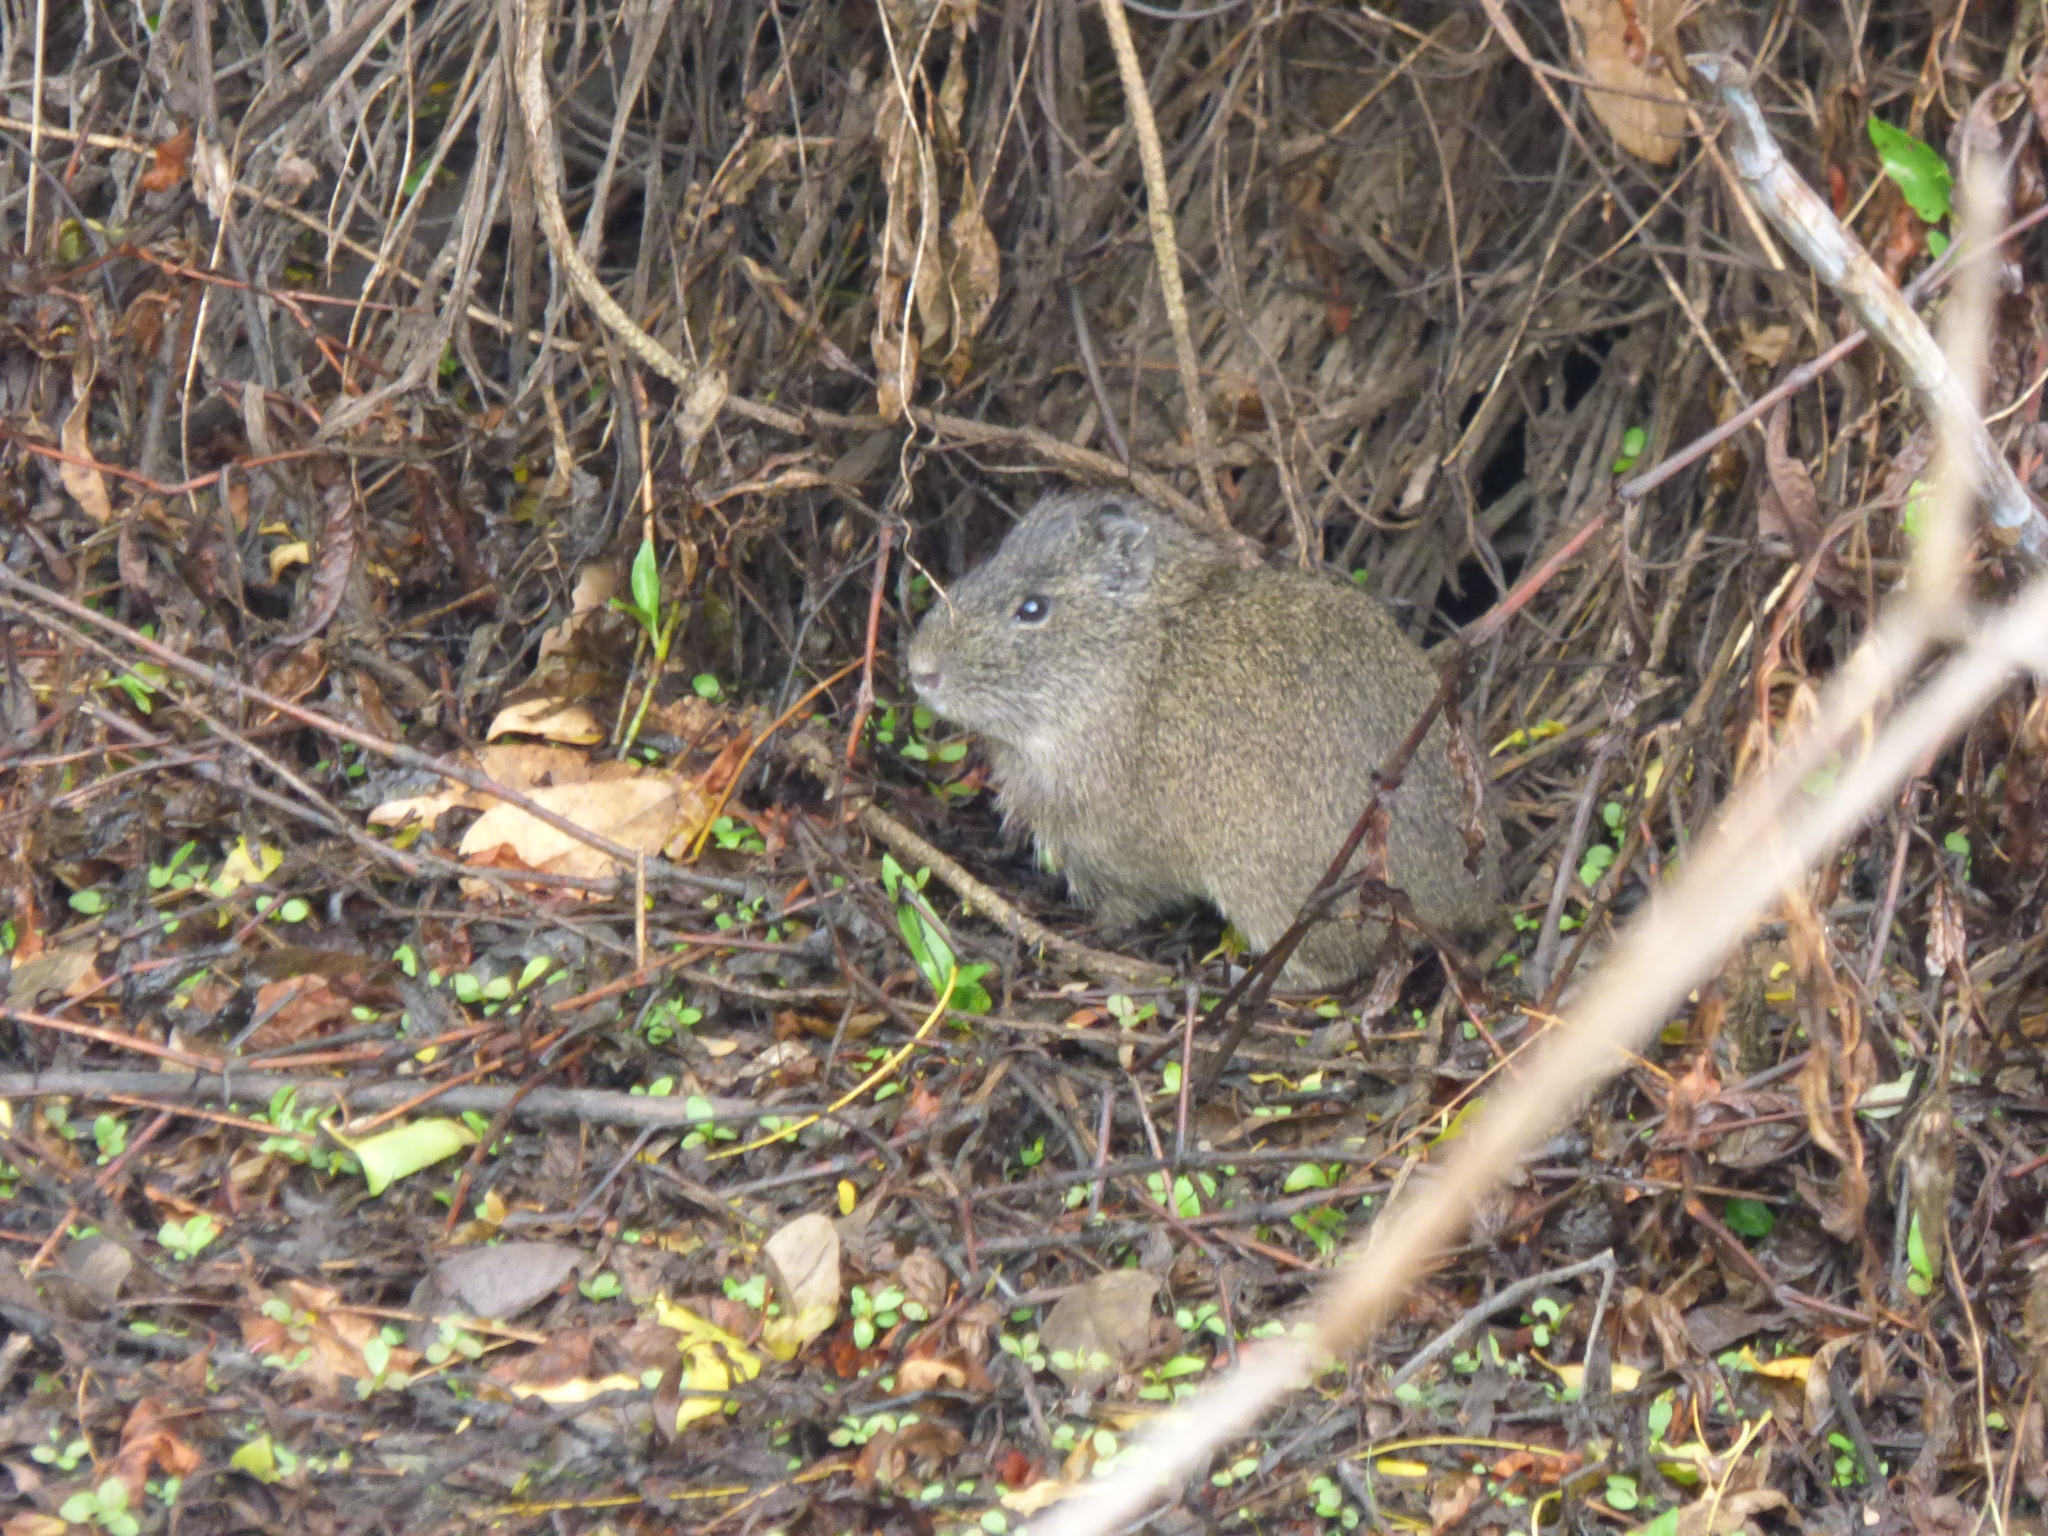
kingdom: Animalia
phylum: Chordata
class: Mammalia
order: Rodentia
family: Caviidae
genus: Cavia
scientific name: Cavia aperea
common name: Brazilian guinea pig
